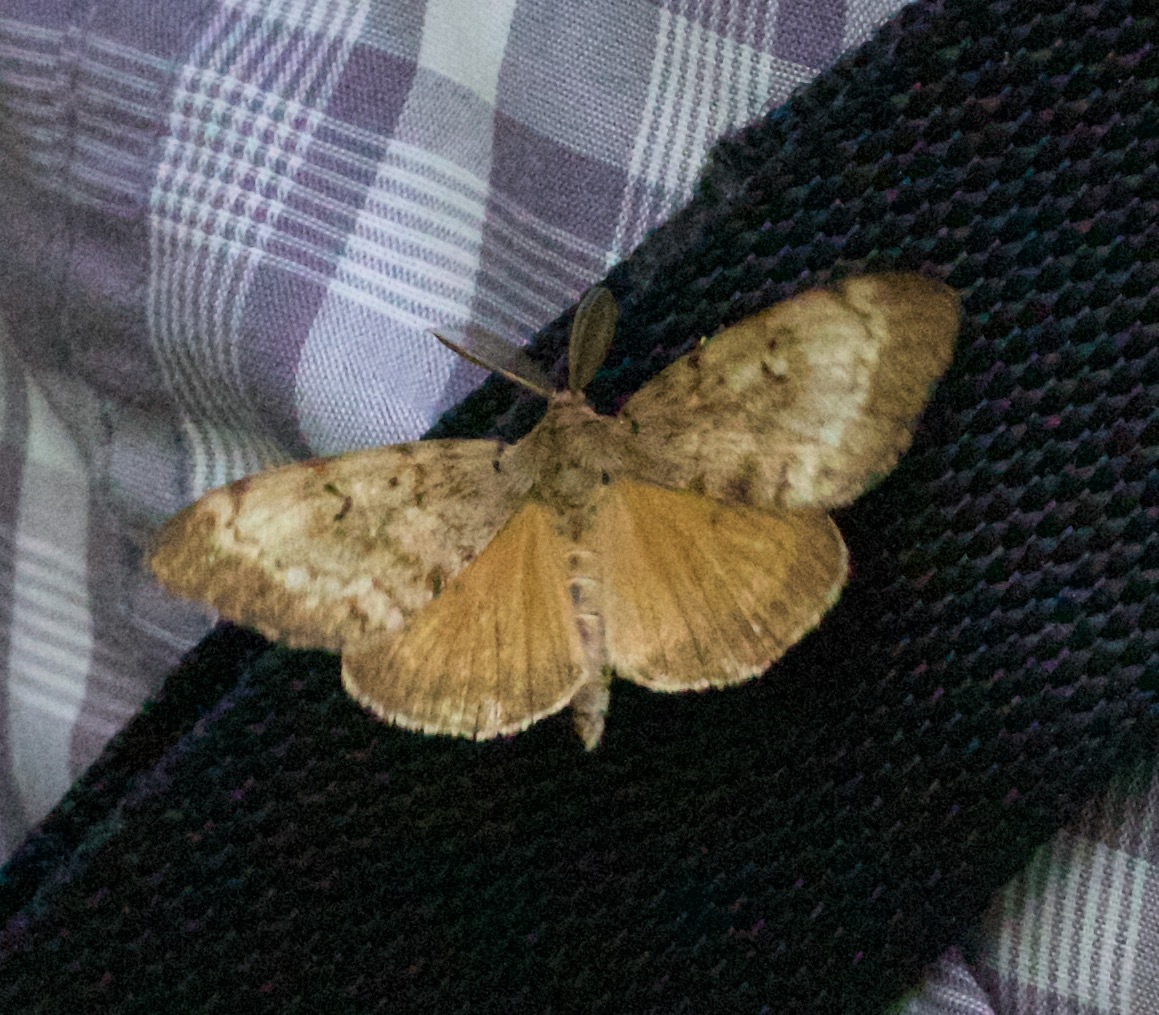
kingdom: Animalia
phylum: Arthropoda
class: Insecta
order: Lepidoptera
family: Erebidae
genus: Lymantria
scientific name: Lymantria dispar
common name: Gypsy moth
